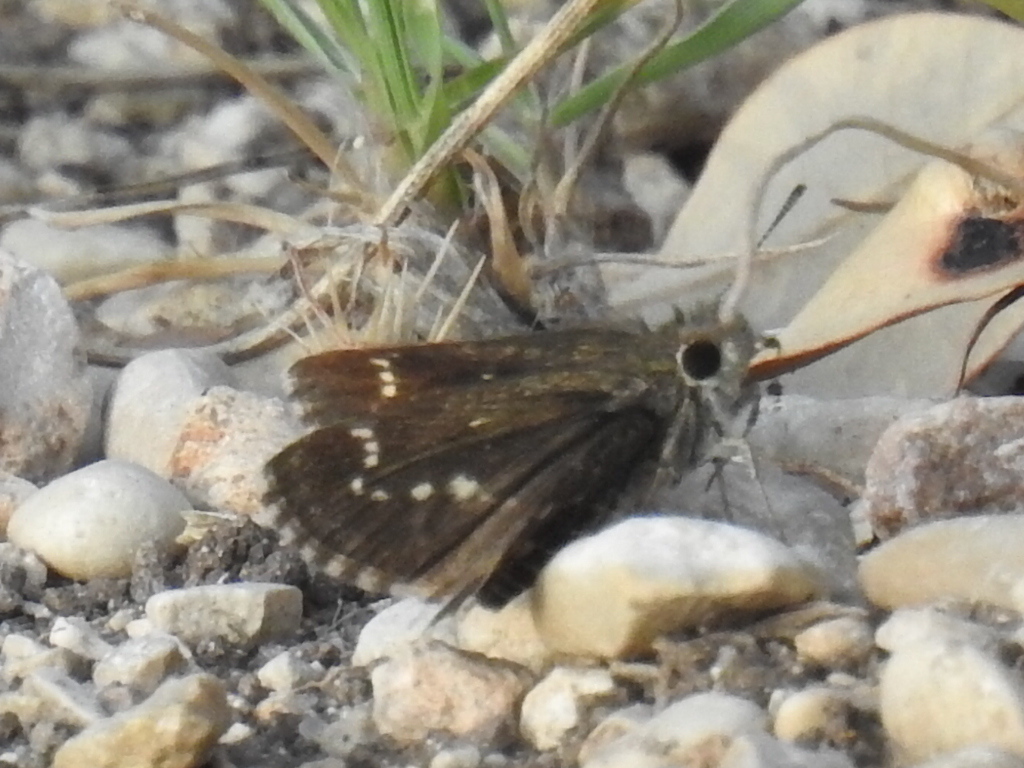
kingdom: Animalia
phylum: Arthropoda
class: Insecta
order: Lepidoptera
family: Hesperiidae
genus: Mastor
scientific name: Mastor celia
